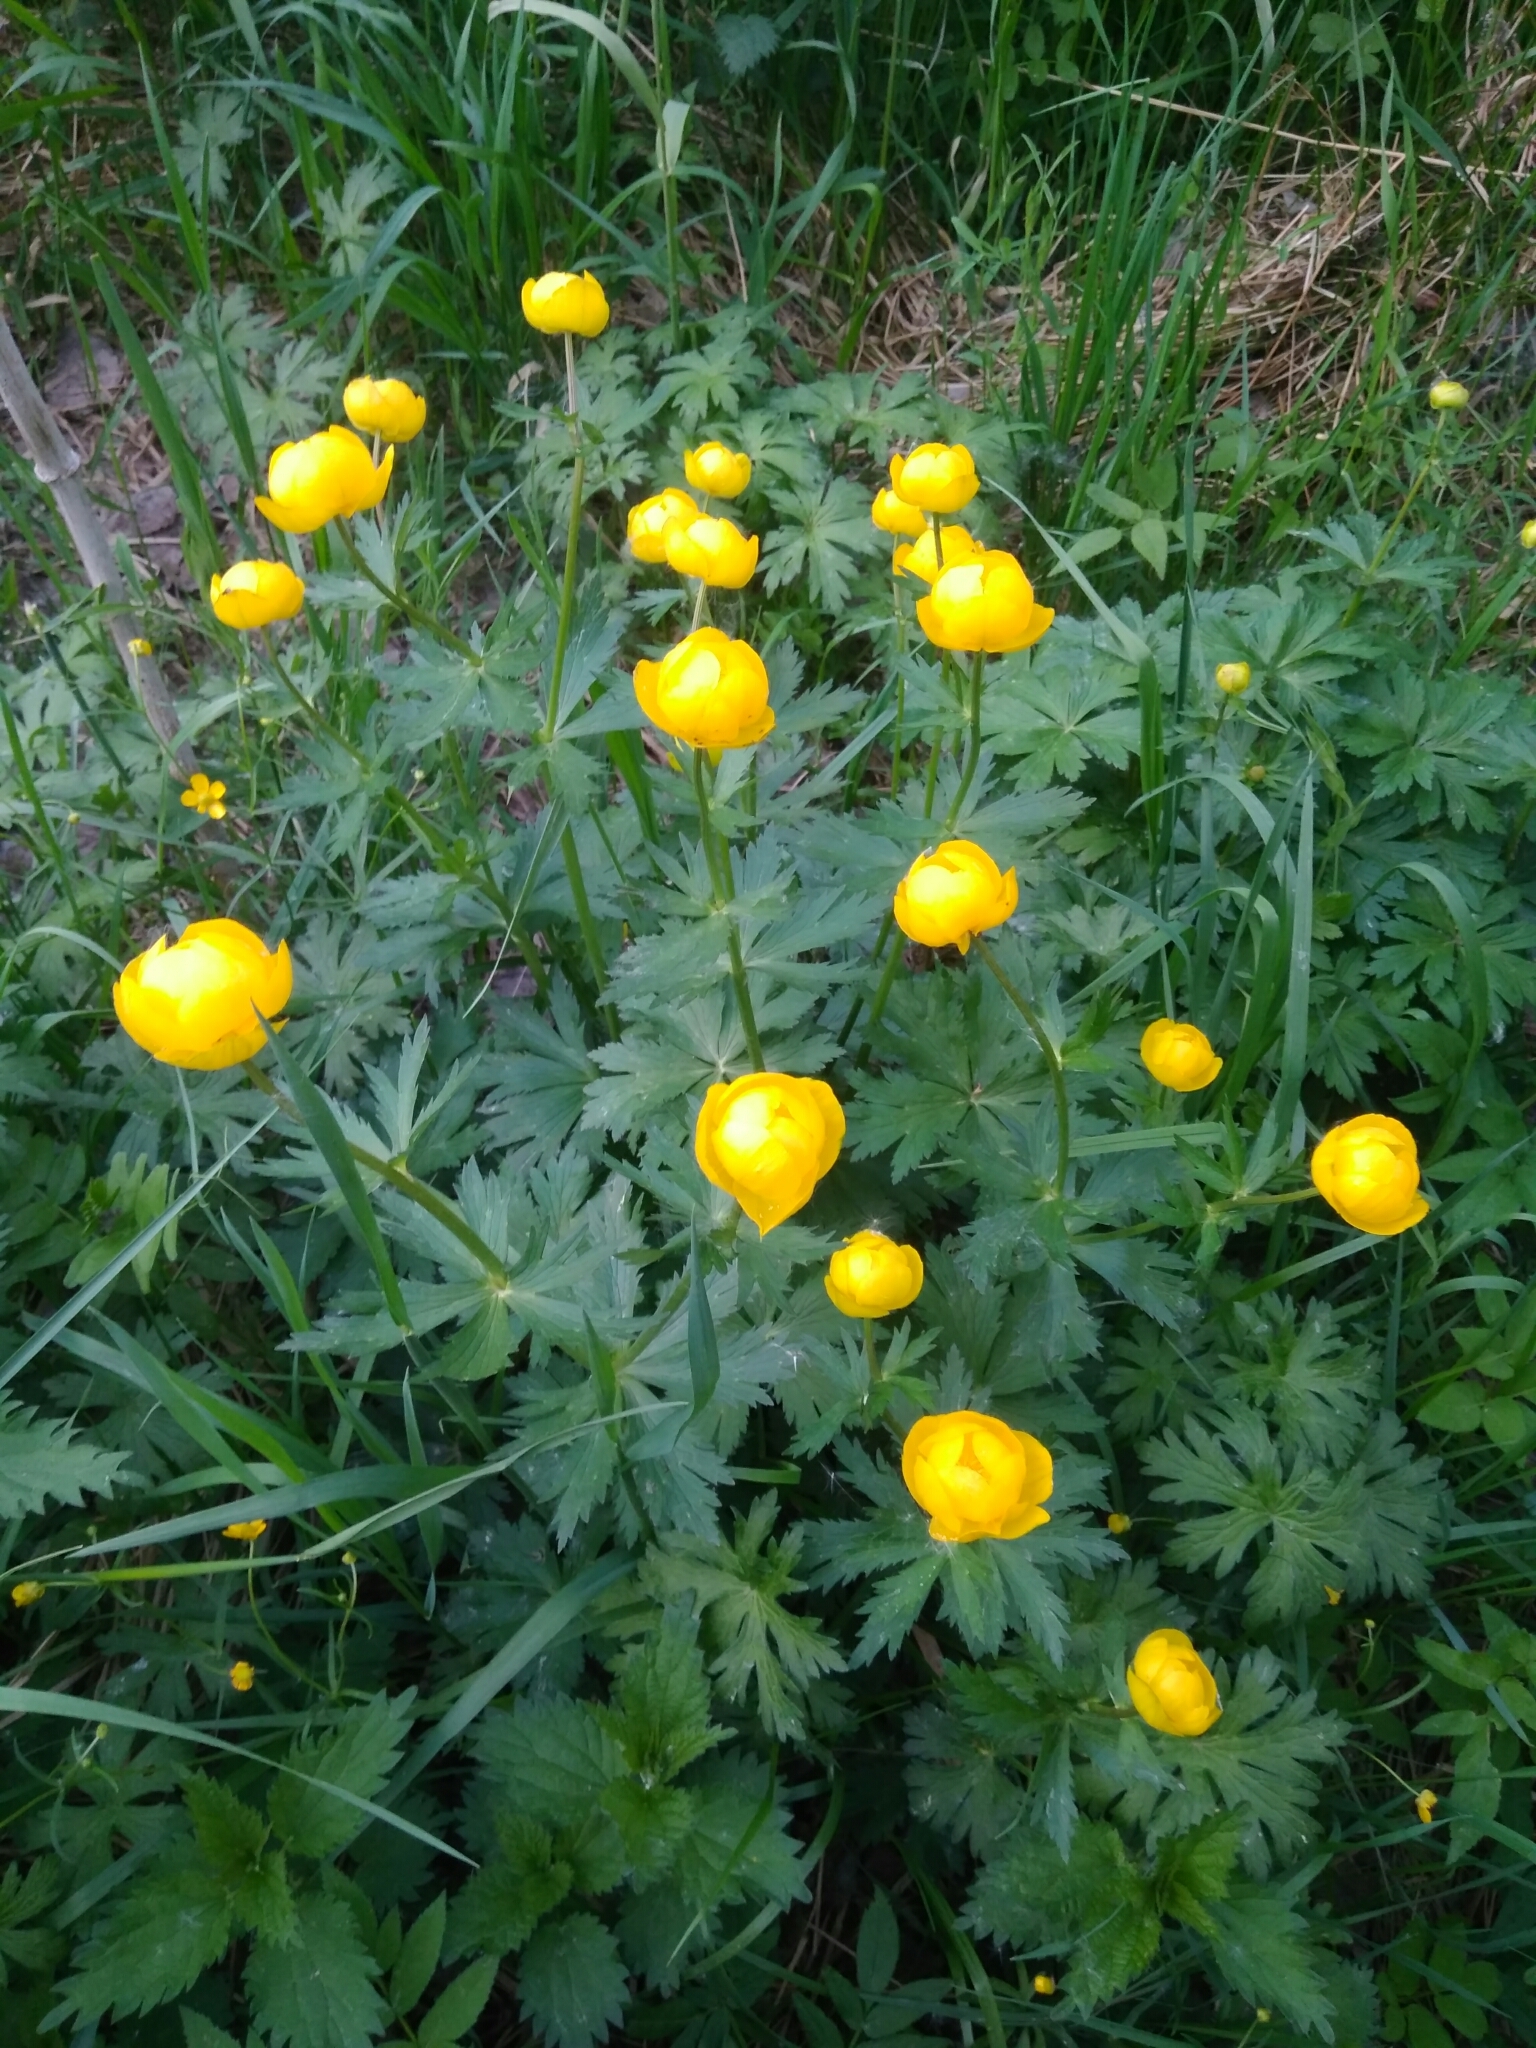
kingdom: Plantae
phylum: Tracheophyta
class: Magnoliopsida
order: Ranunculales
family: Ranunculaceae
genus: Trollius
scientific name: Trollius europaeus
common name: European globeflower
